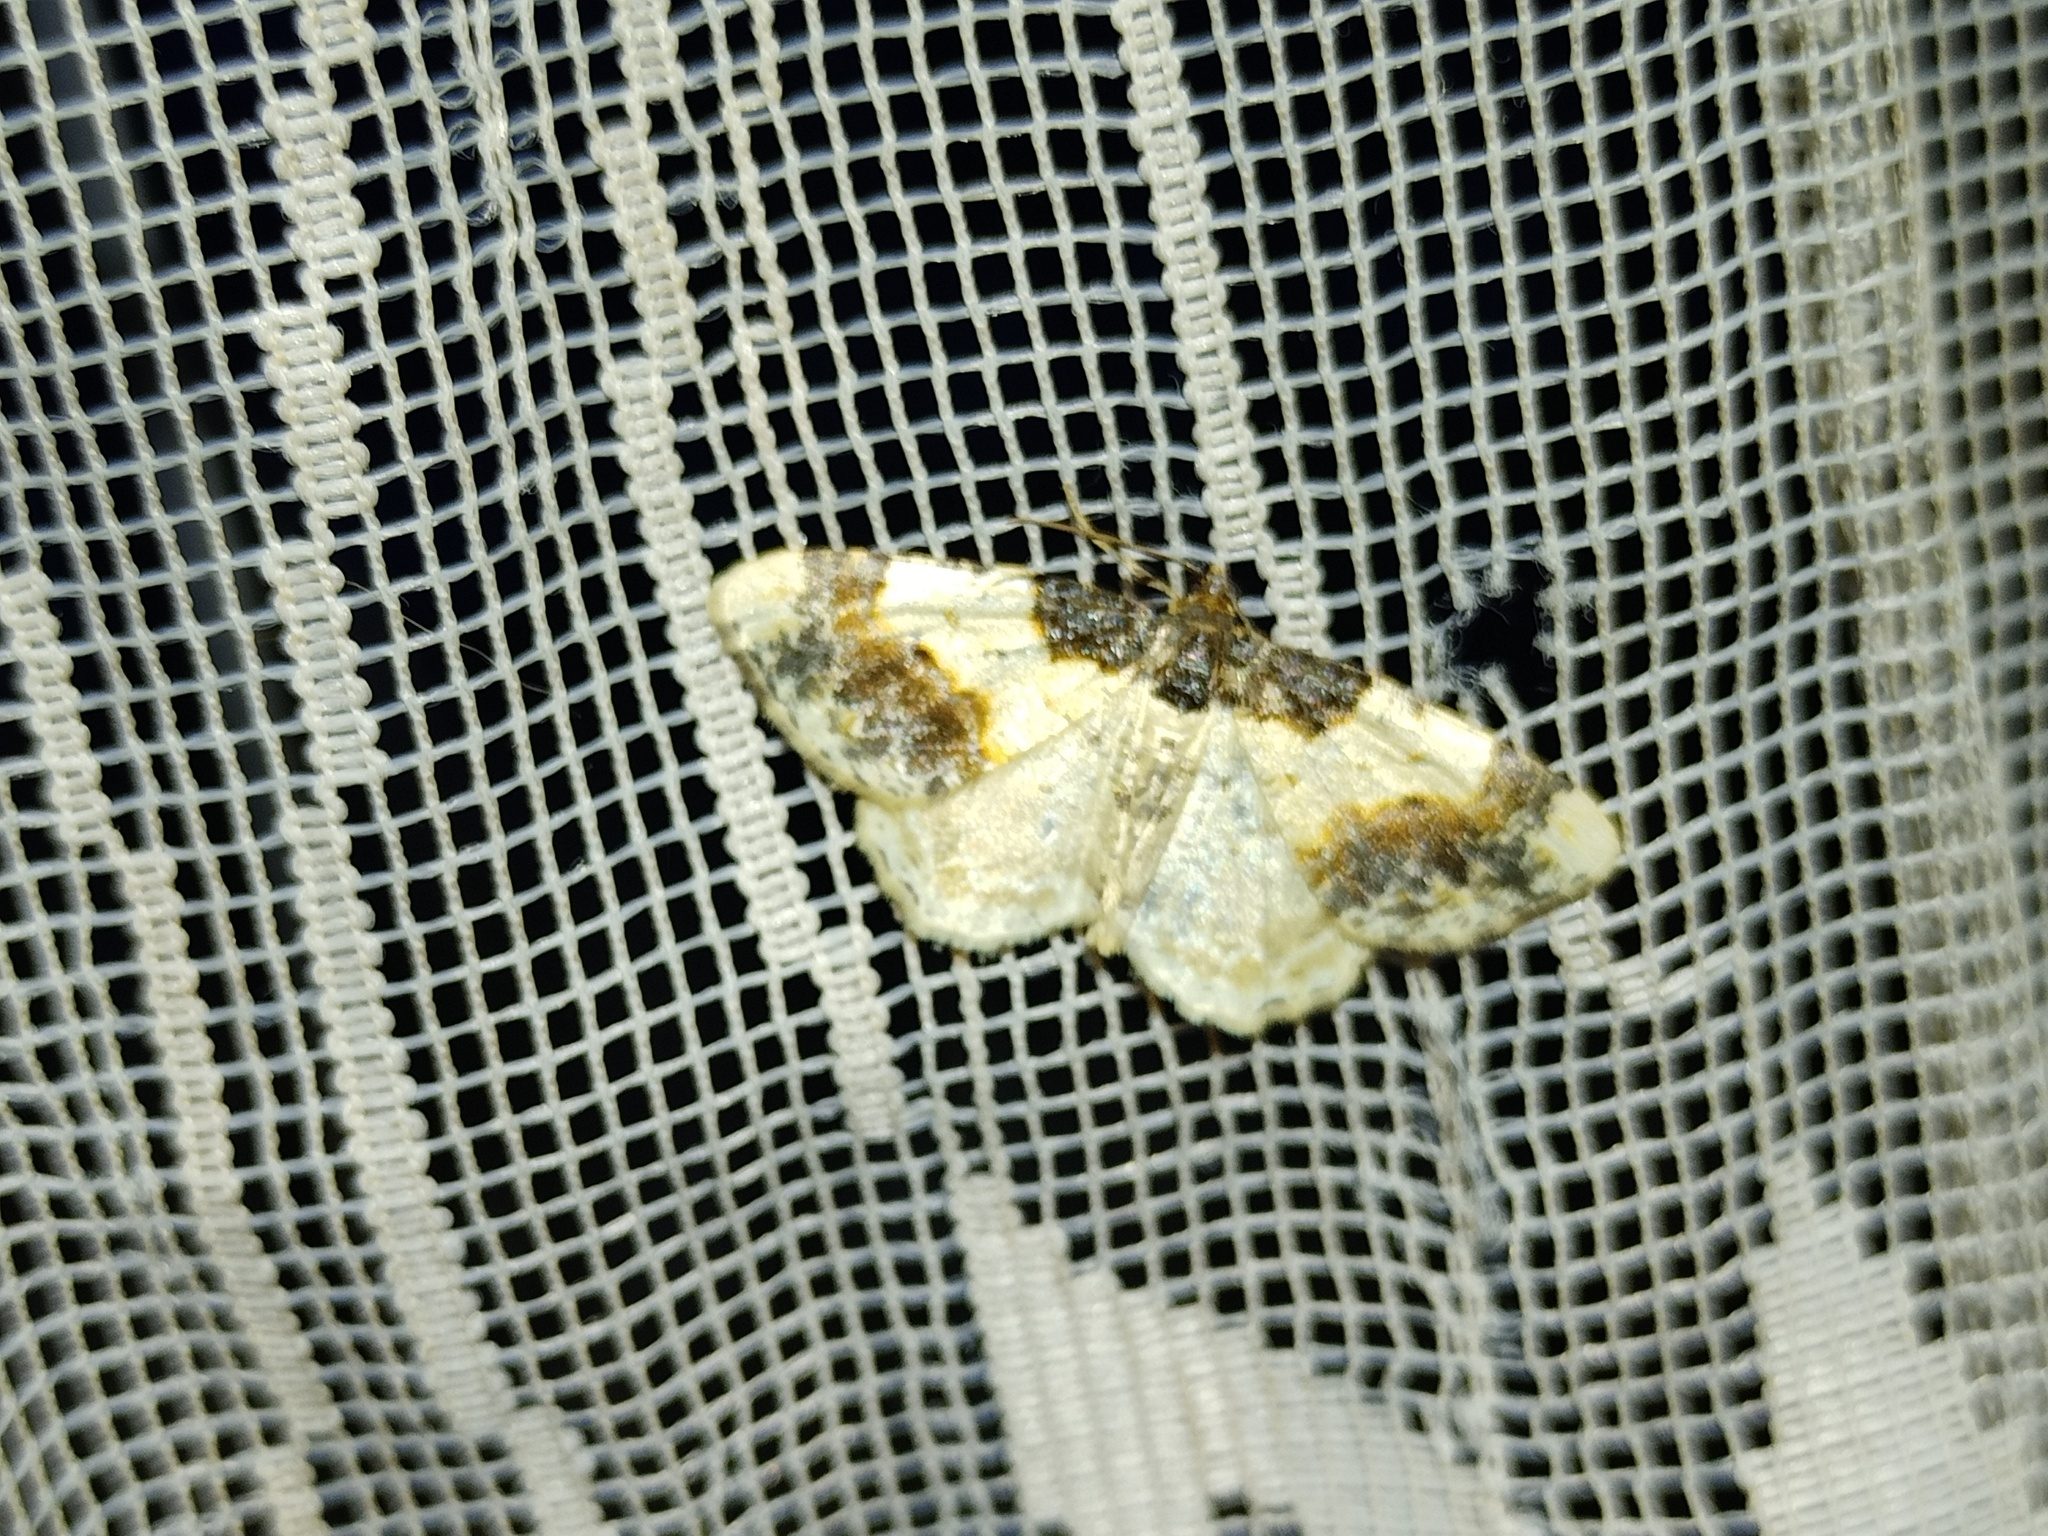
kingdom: Animalia
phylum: Arthropoda
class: Insecta
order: Lepidoptera
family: Geometridae
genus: Ligdia
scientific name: Ligdia adustata
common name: Scorched carpet
